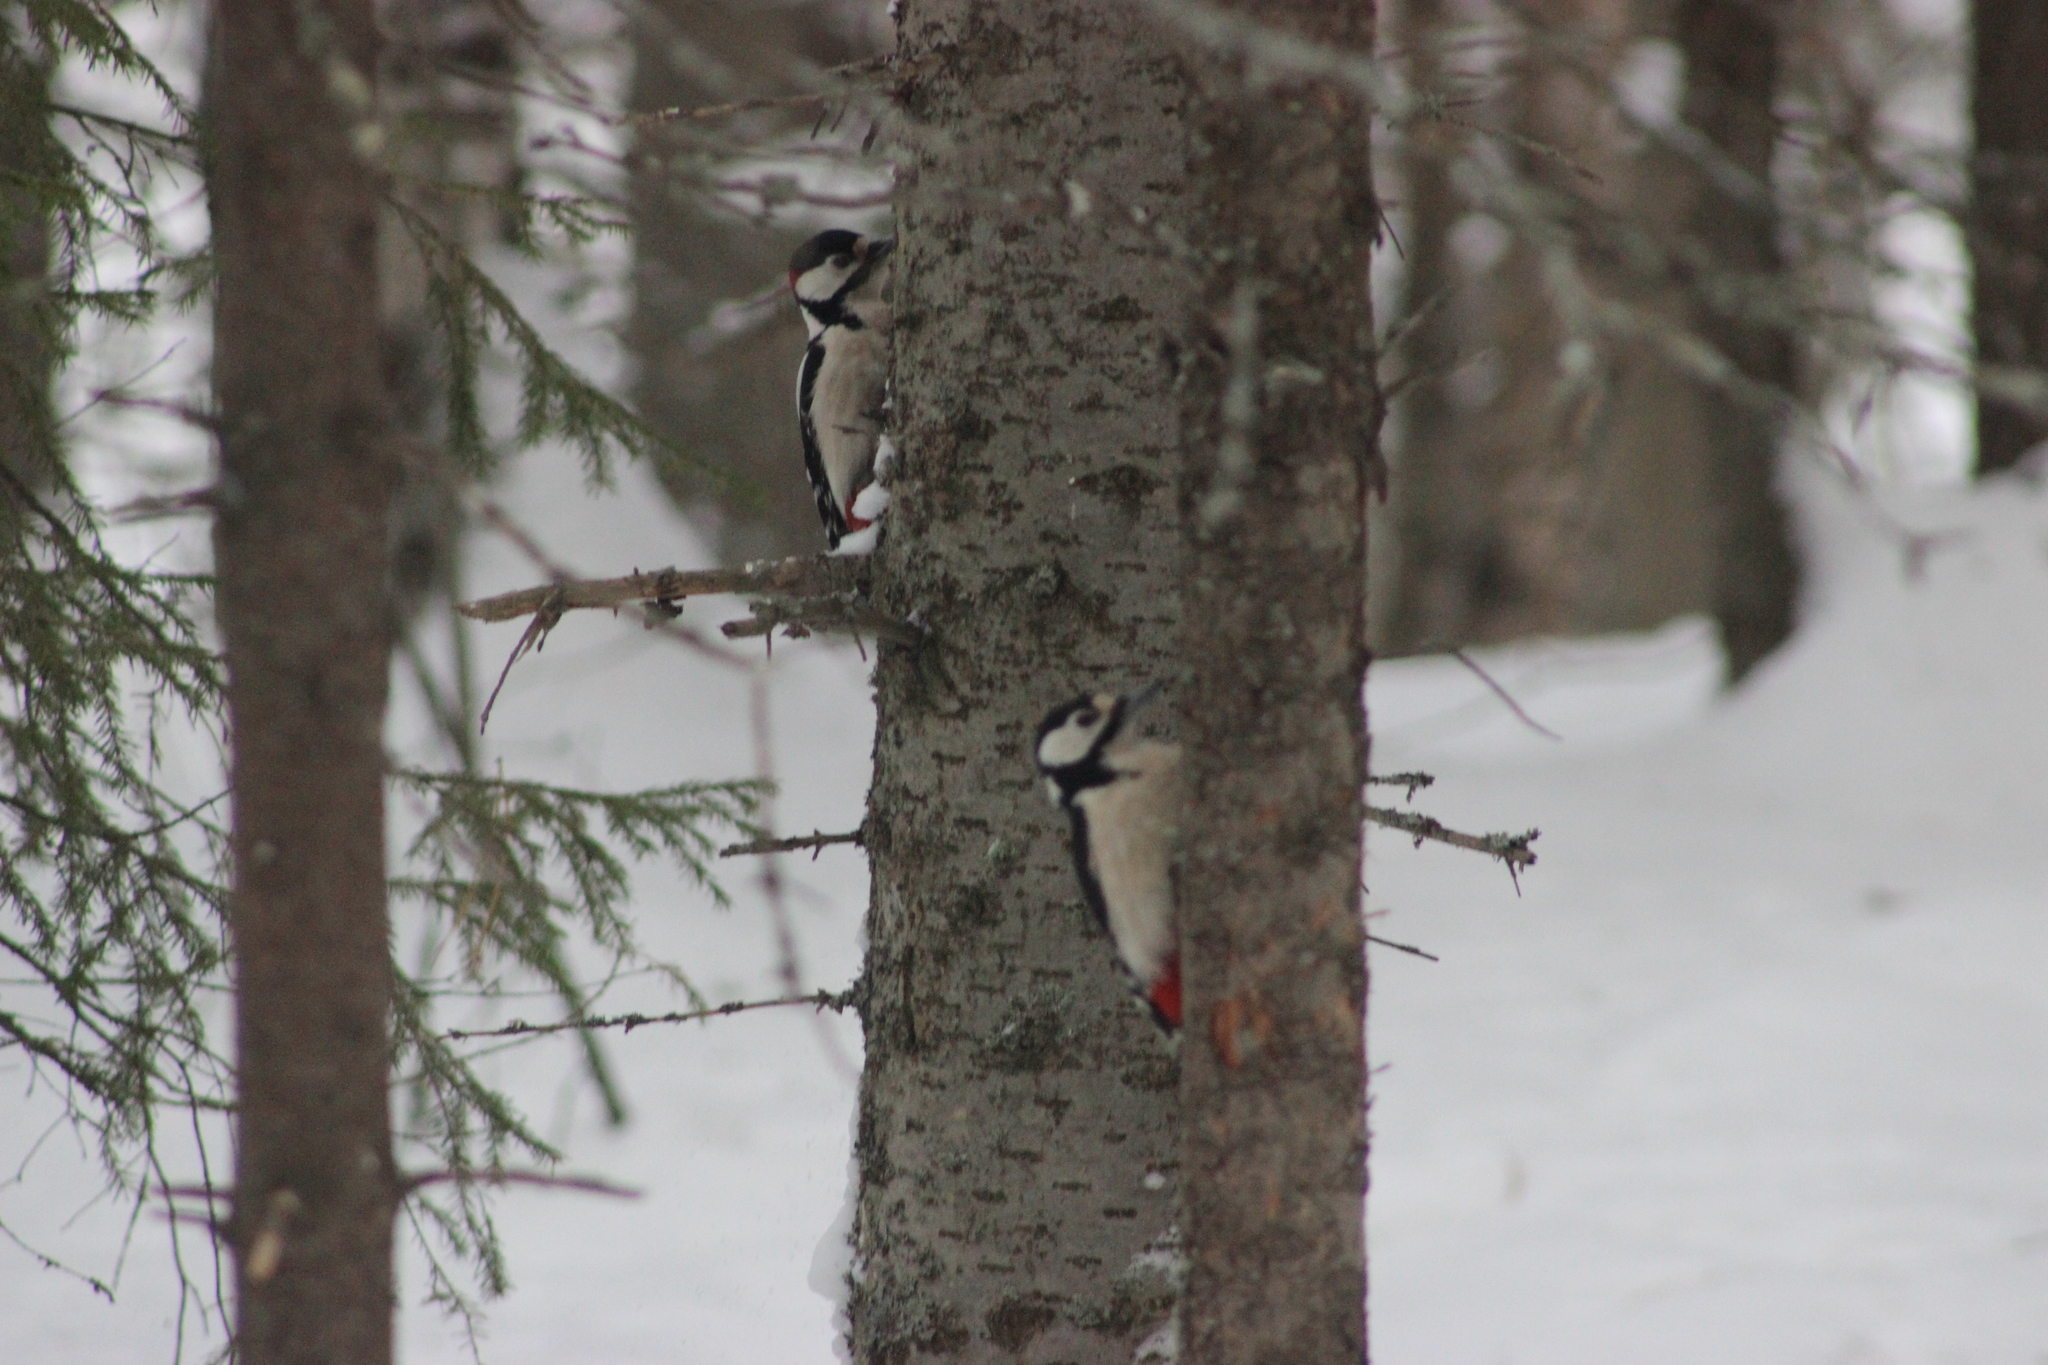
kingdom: Animalia
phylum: Chordata
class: Aves
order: Piciformes
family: Picidae
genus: Dendrocopos
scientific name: Dendrocopos major
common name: Great spotted woodpecker
